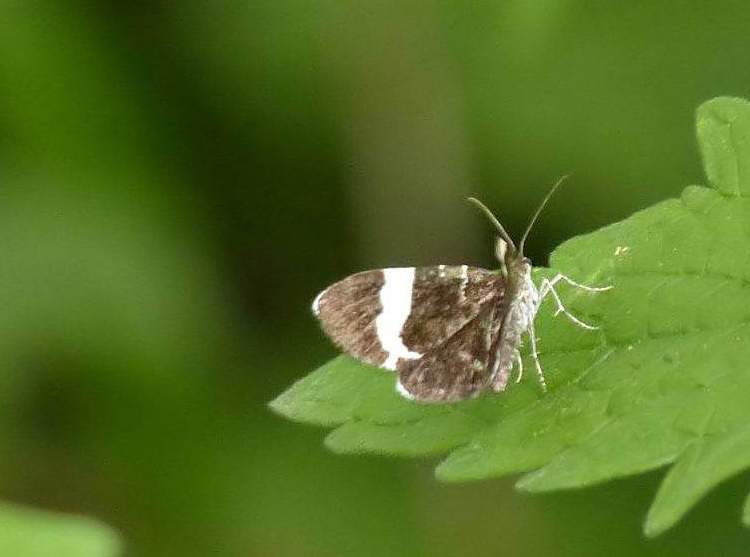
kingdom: Animalia
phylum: Arthropoda
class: Insecta
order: Lepidoptera
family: Geometridae
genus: Trichodezia
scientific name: Trichodezia albovittata
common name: White striped black
